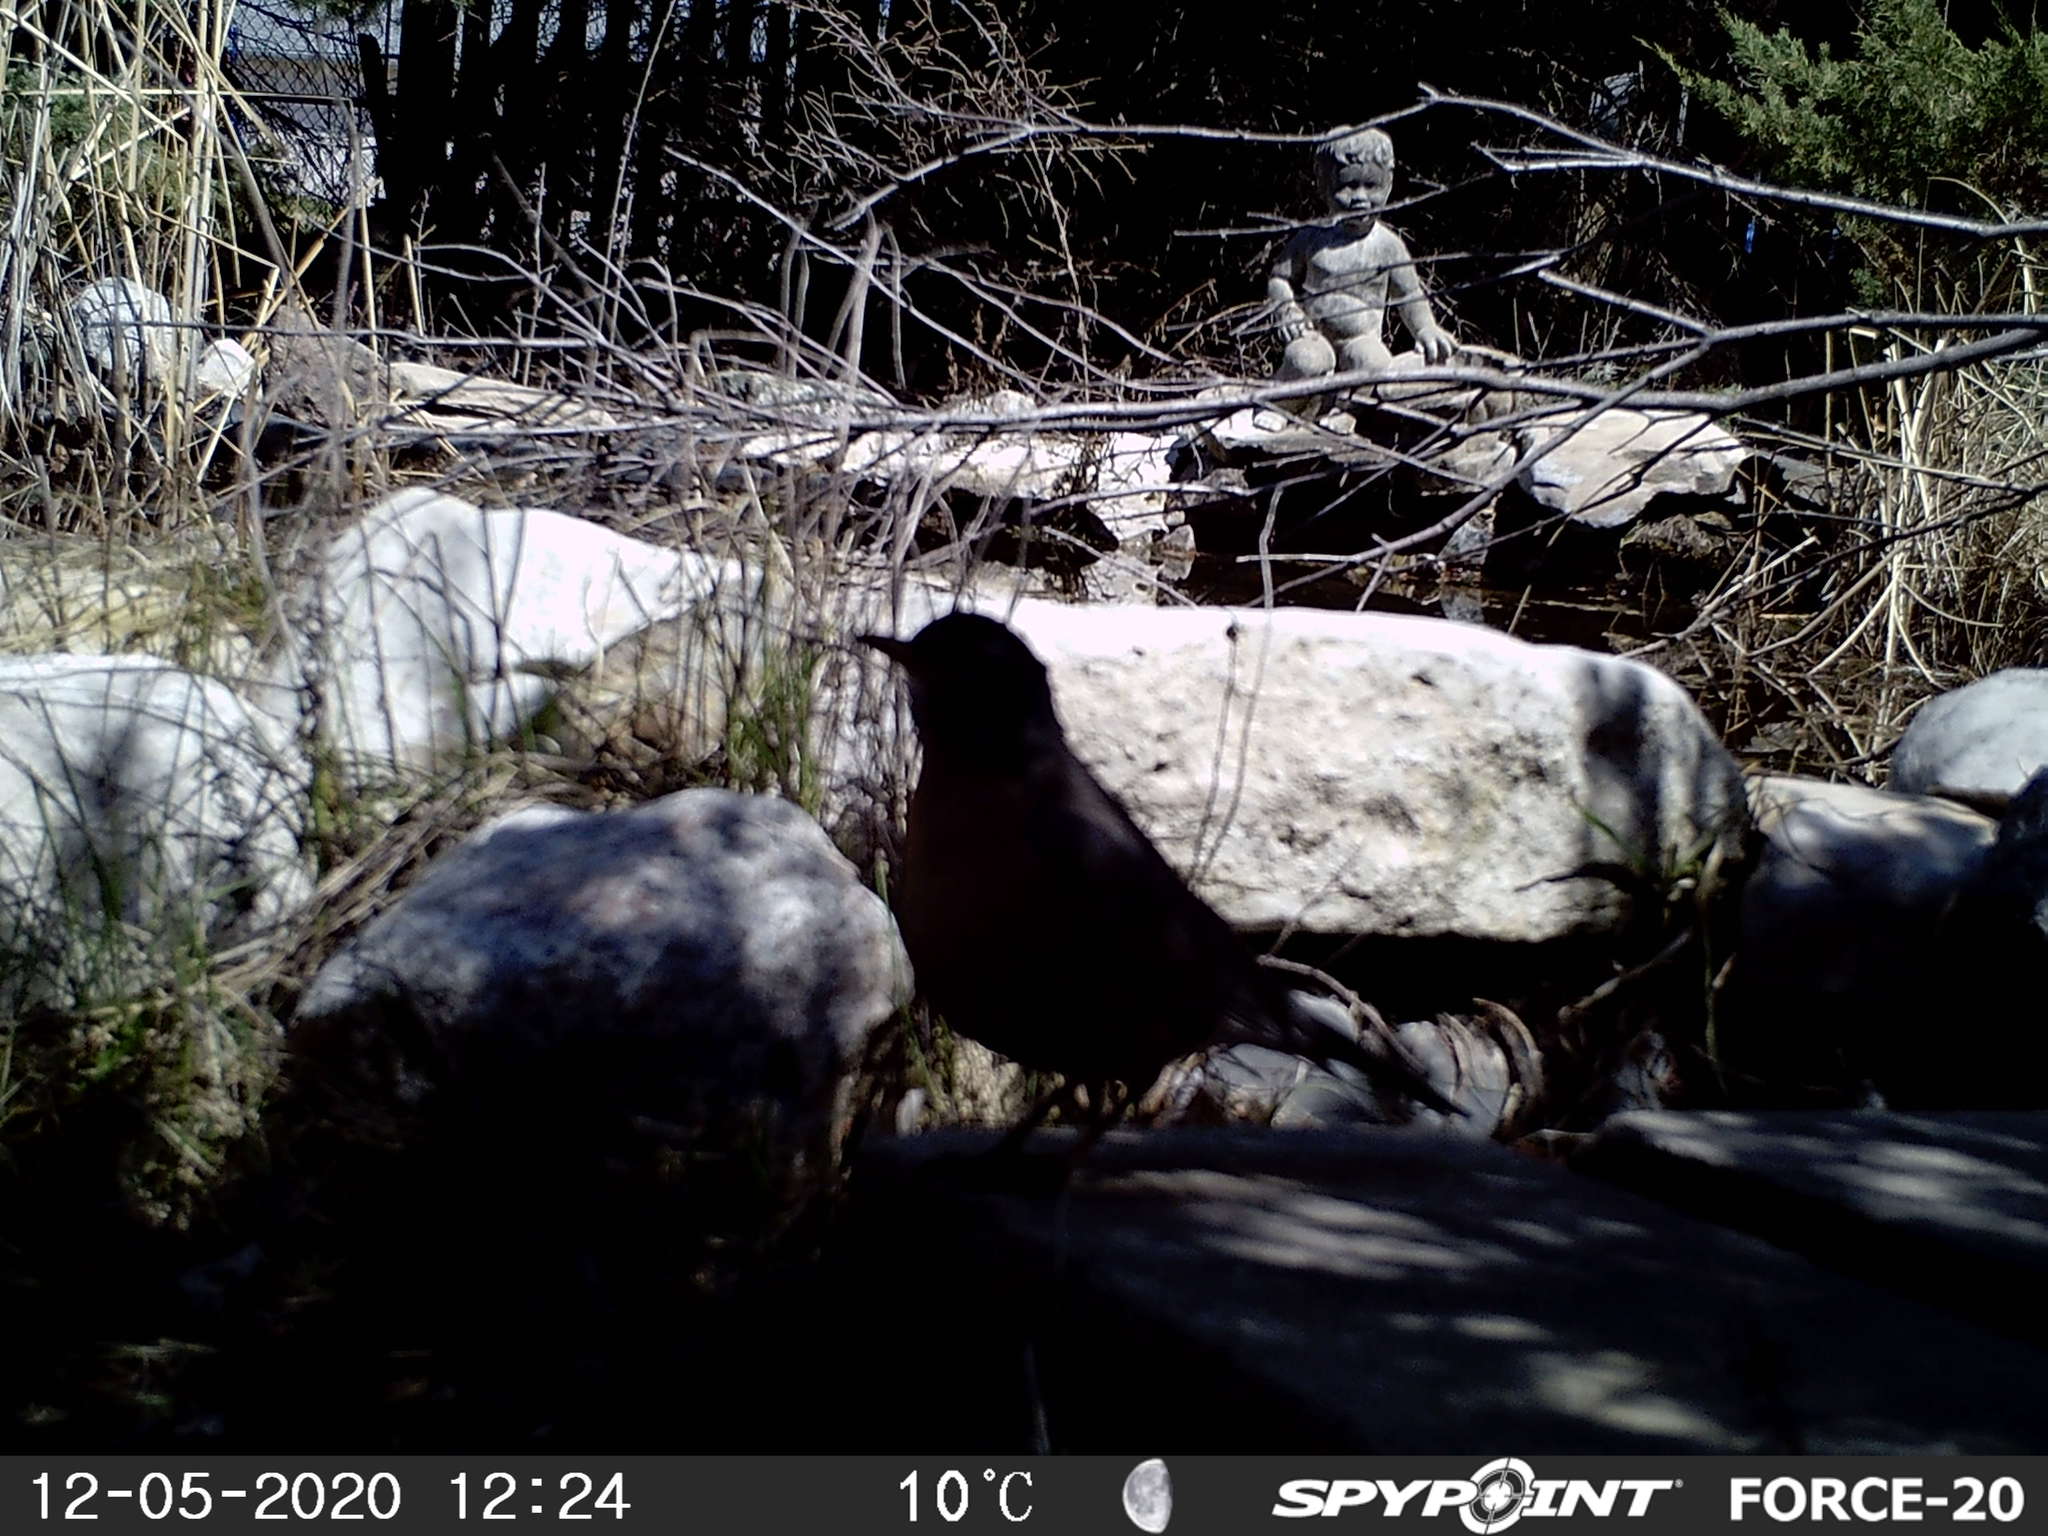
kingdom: Animalia
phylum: Chordata
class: Aves
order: Passeriformes
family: Turdidae
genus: Turdus
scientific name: Turdus migratorius
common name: American robin
